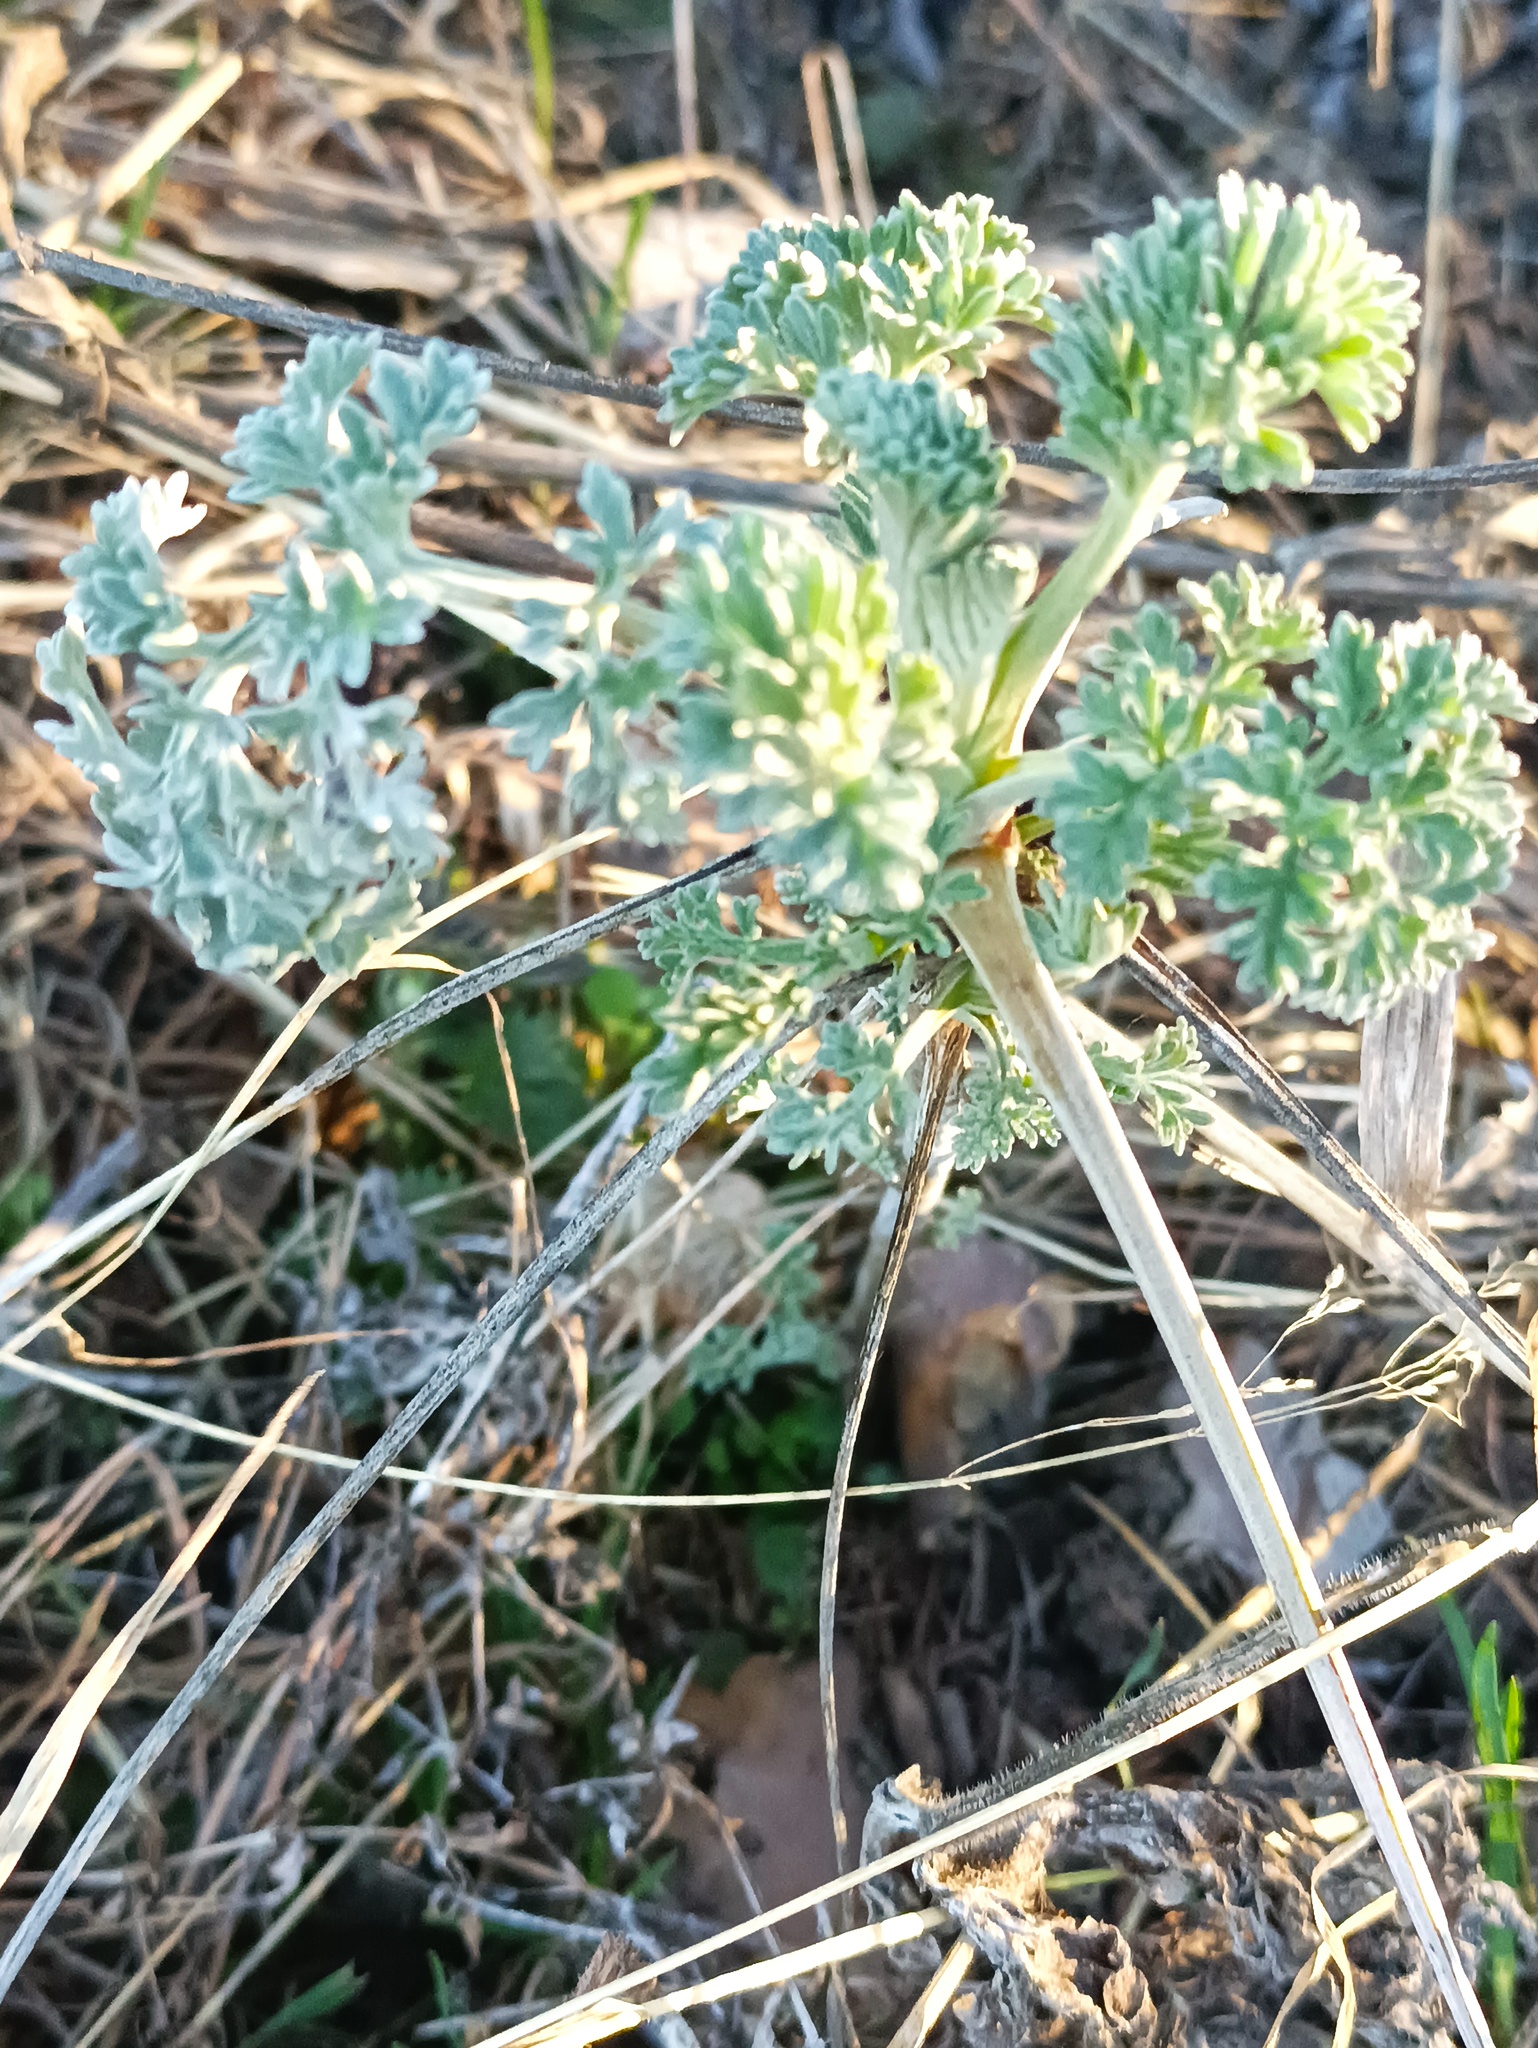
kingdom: Plantae
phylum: Tracheophyta
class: Magnoliopsida
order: Asterales
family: Asteraceae
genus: Artemisia
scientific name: Artemisia absinthium
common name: Wormwood
